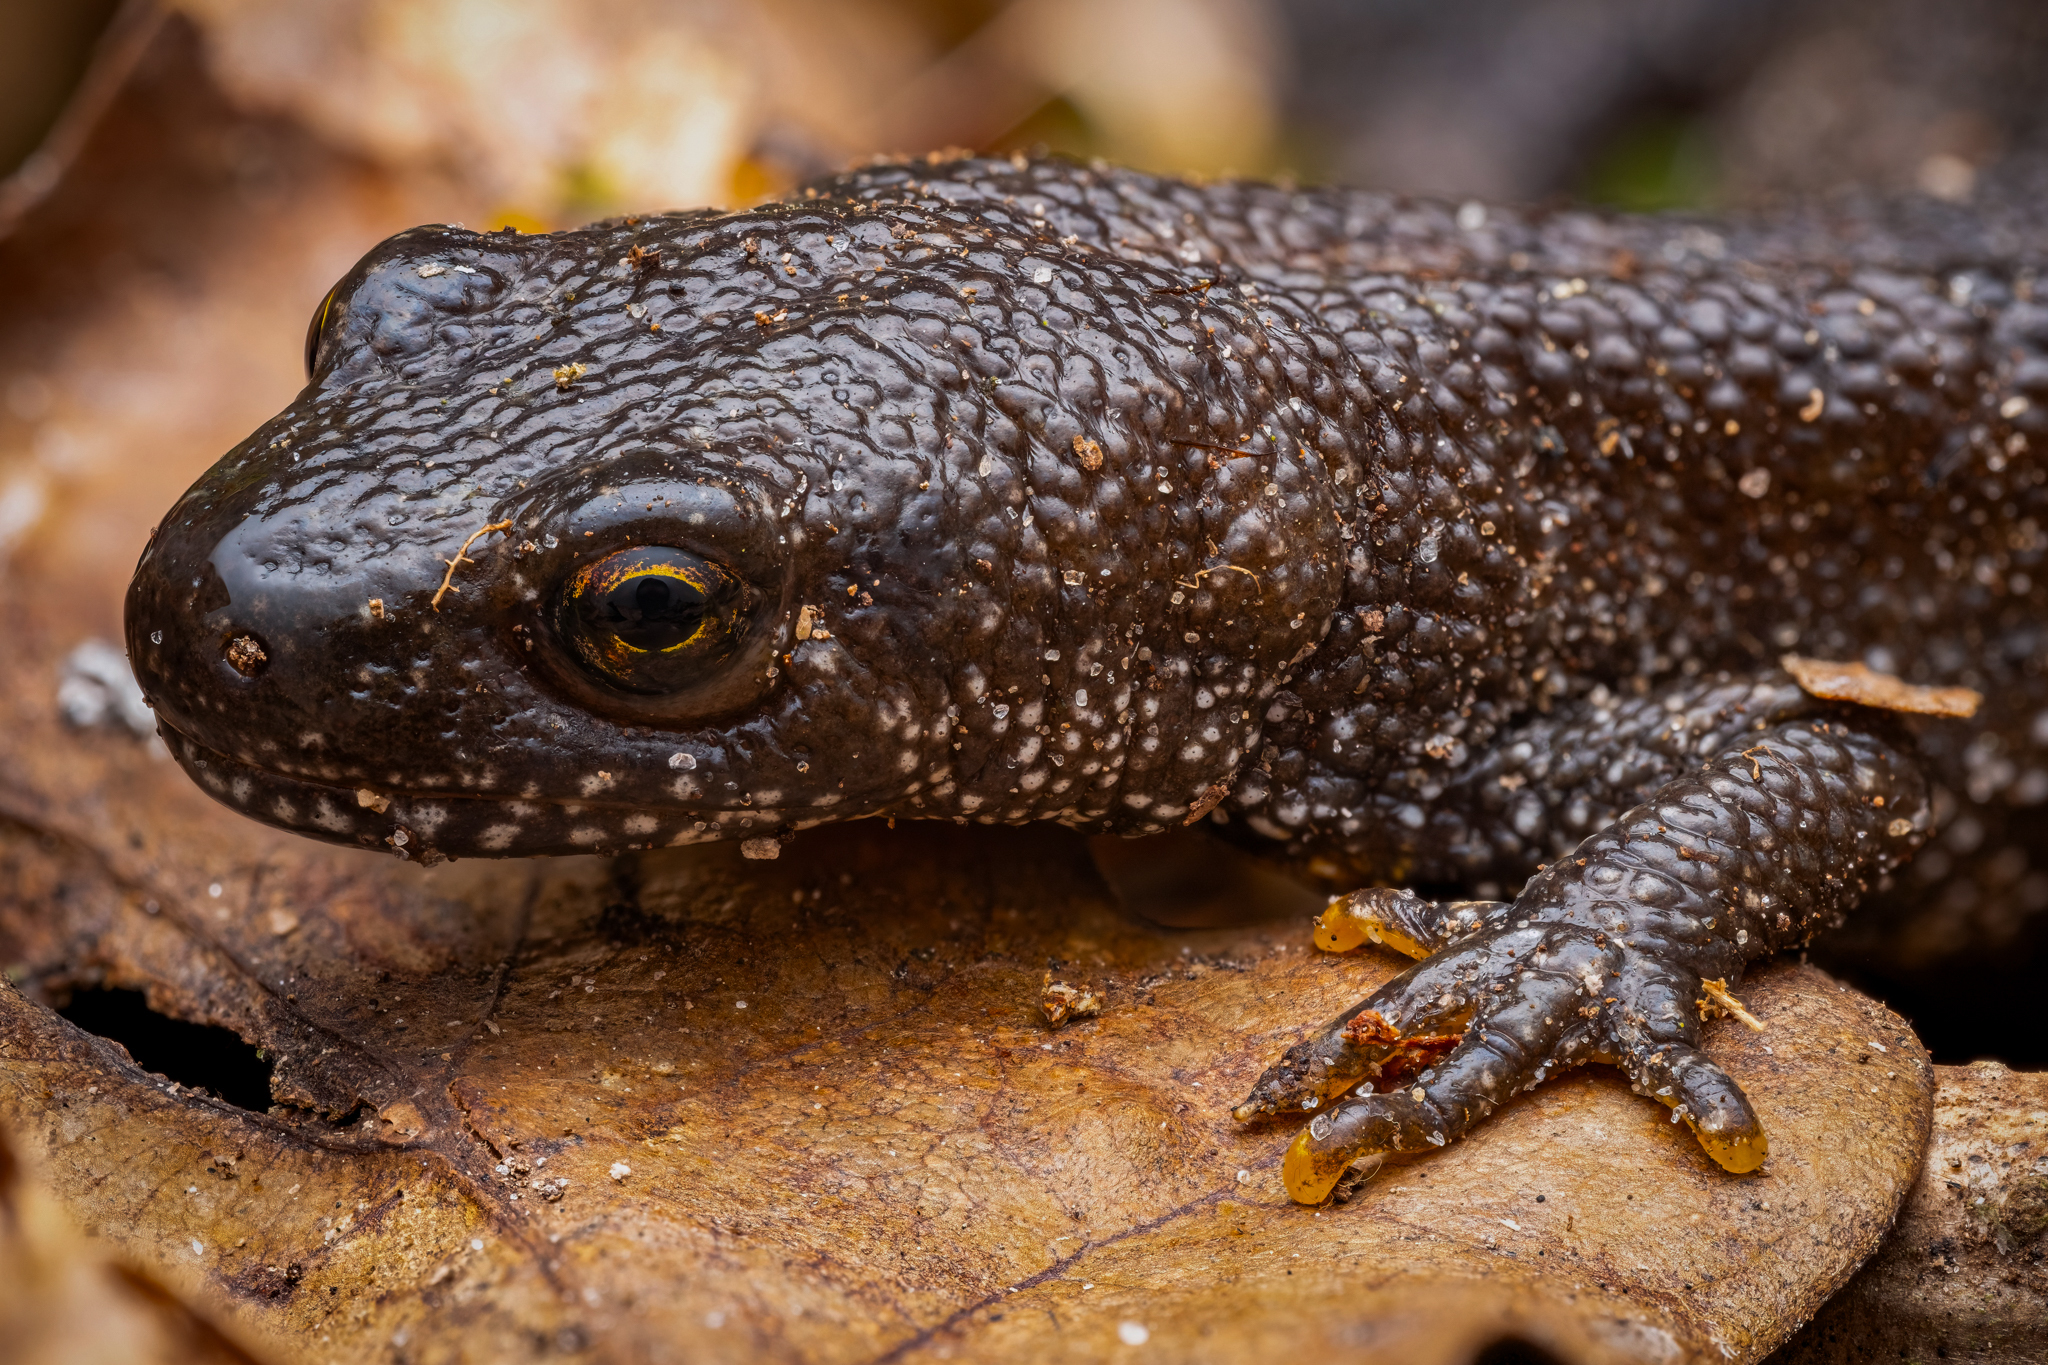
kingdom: Animalia
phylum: Chordata
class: Amphibia
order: Caudata
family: Salamandridae
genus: Triturus
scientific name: Triturus cristatus
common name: Crested newt
